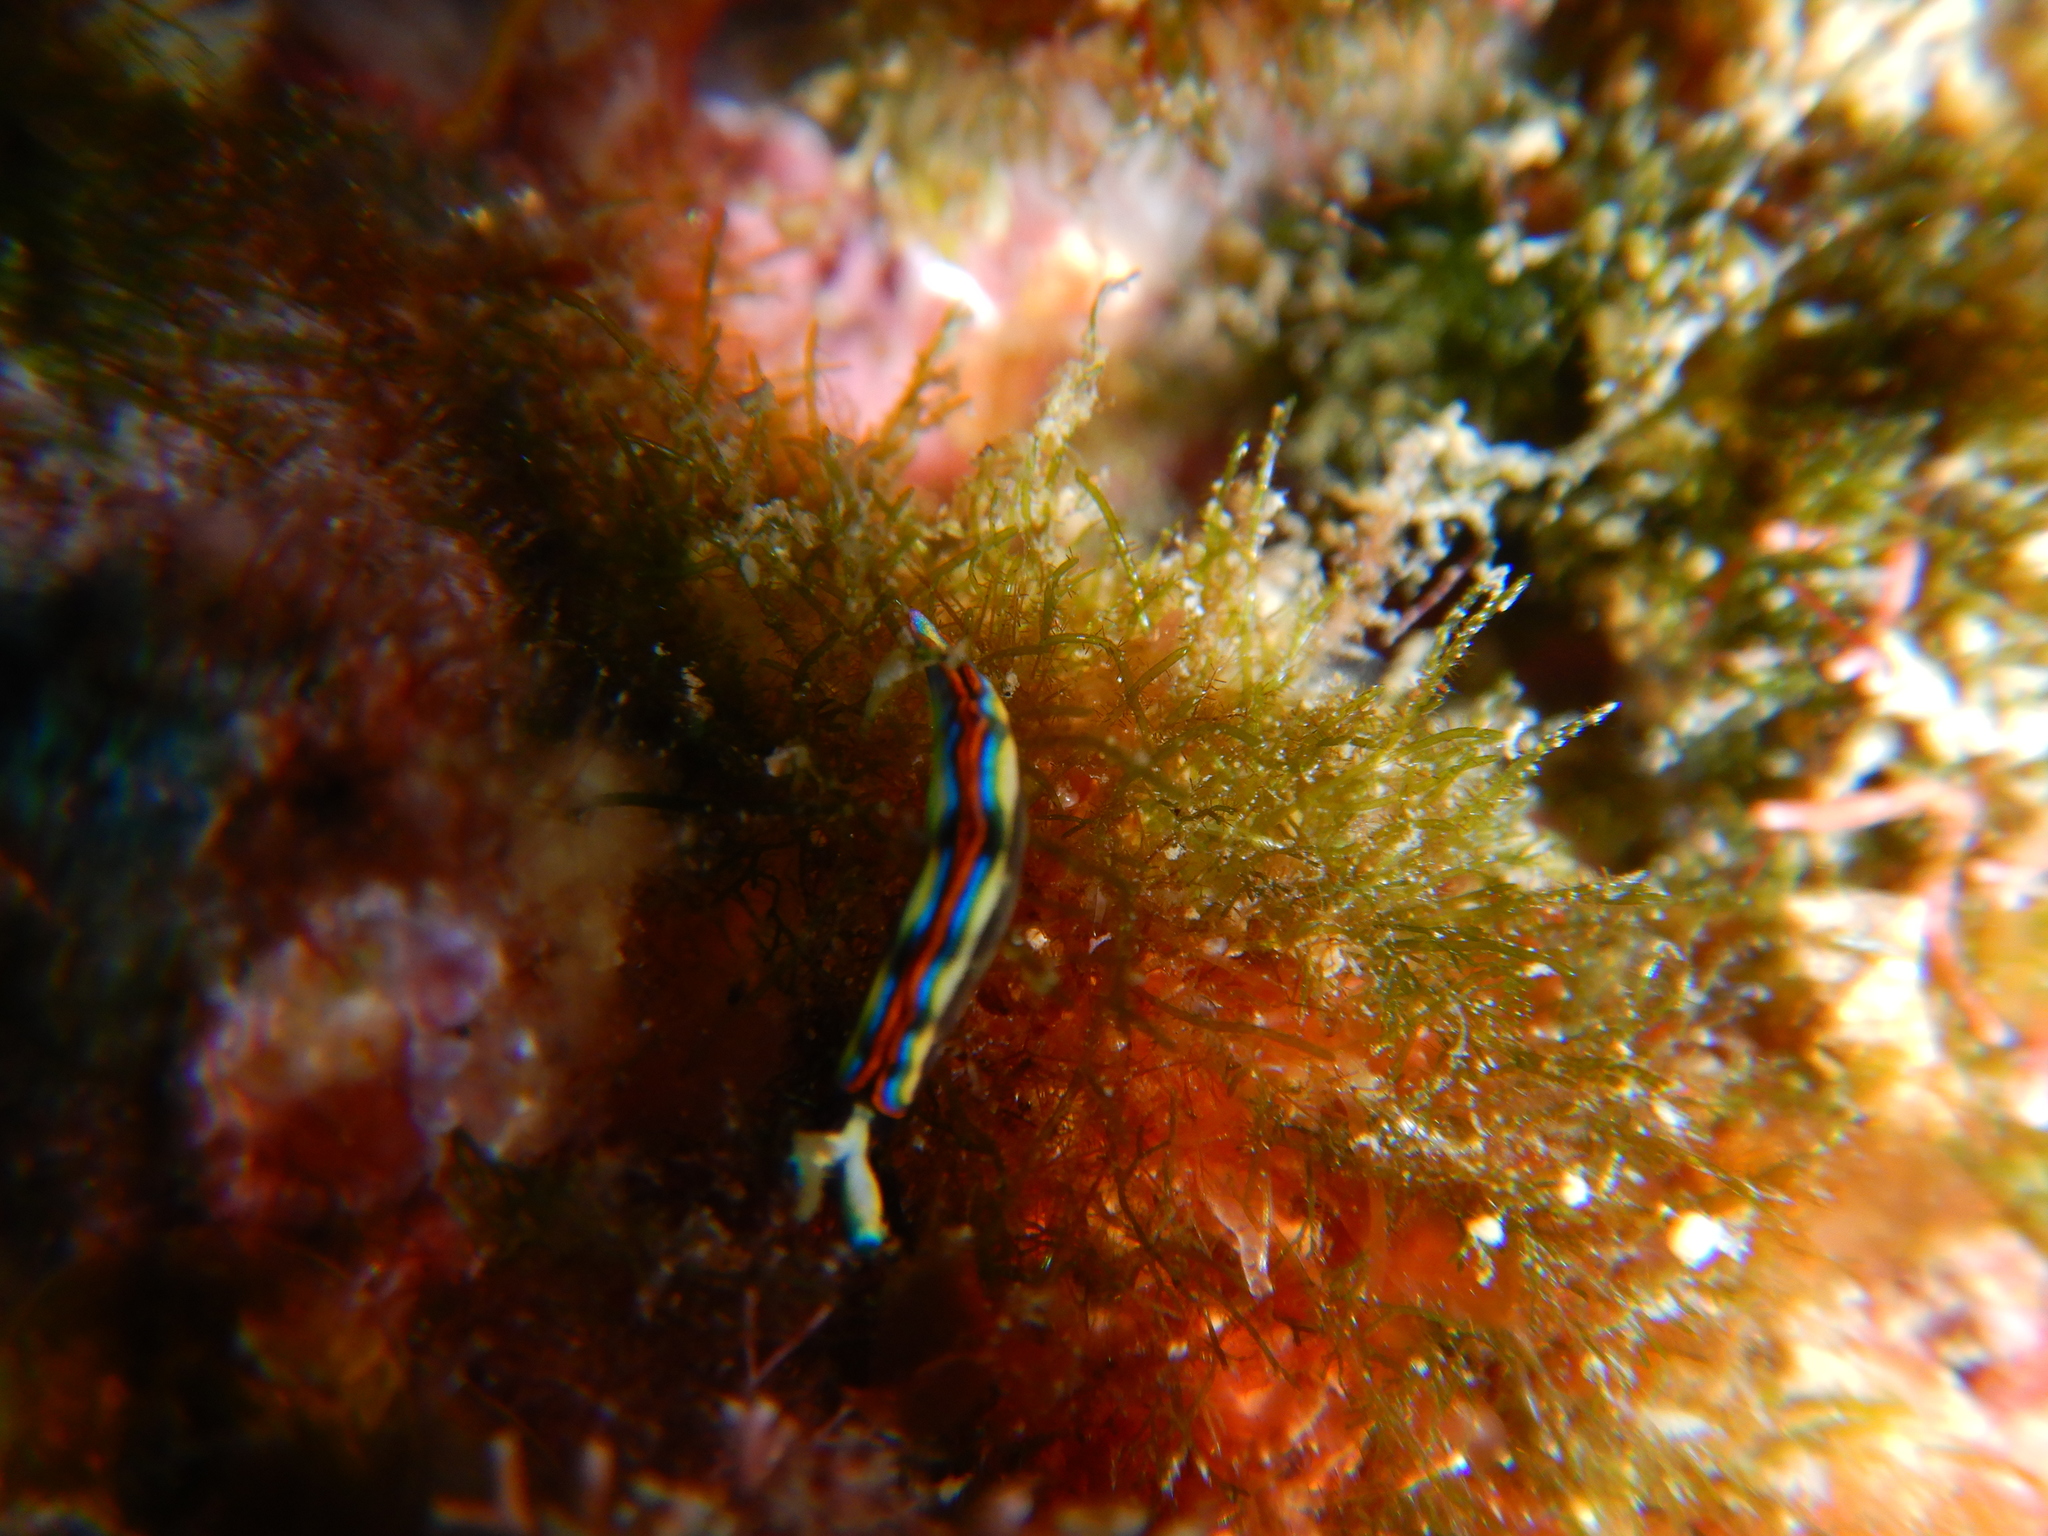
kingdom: Animalia
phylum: Mollusca
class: Gastropoda
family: Plakobranchidae
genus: Thuridilla
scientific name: Thuridilla hopei
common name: Splendid elysia
